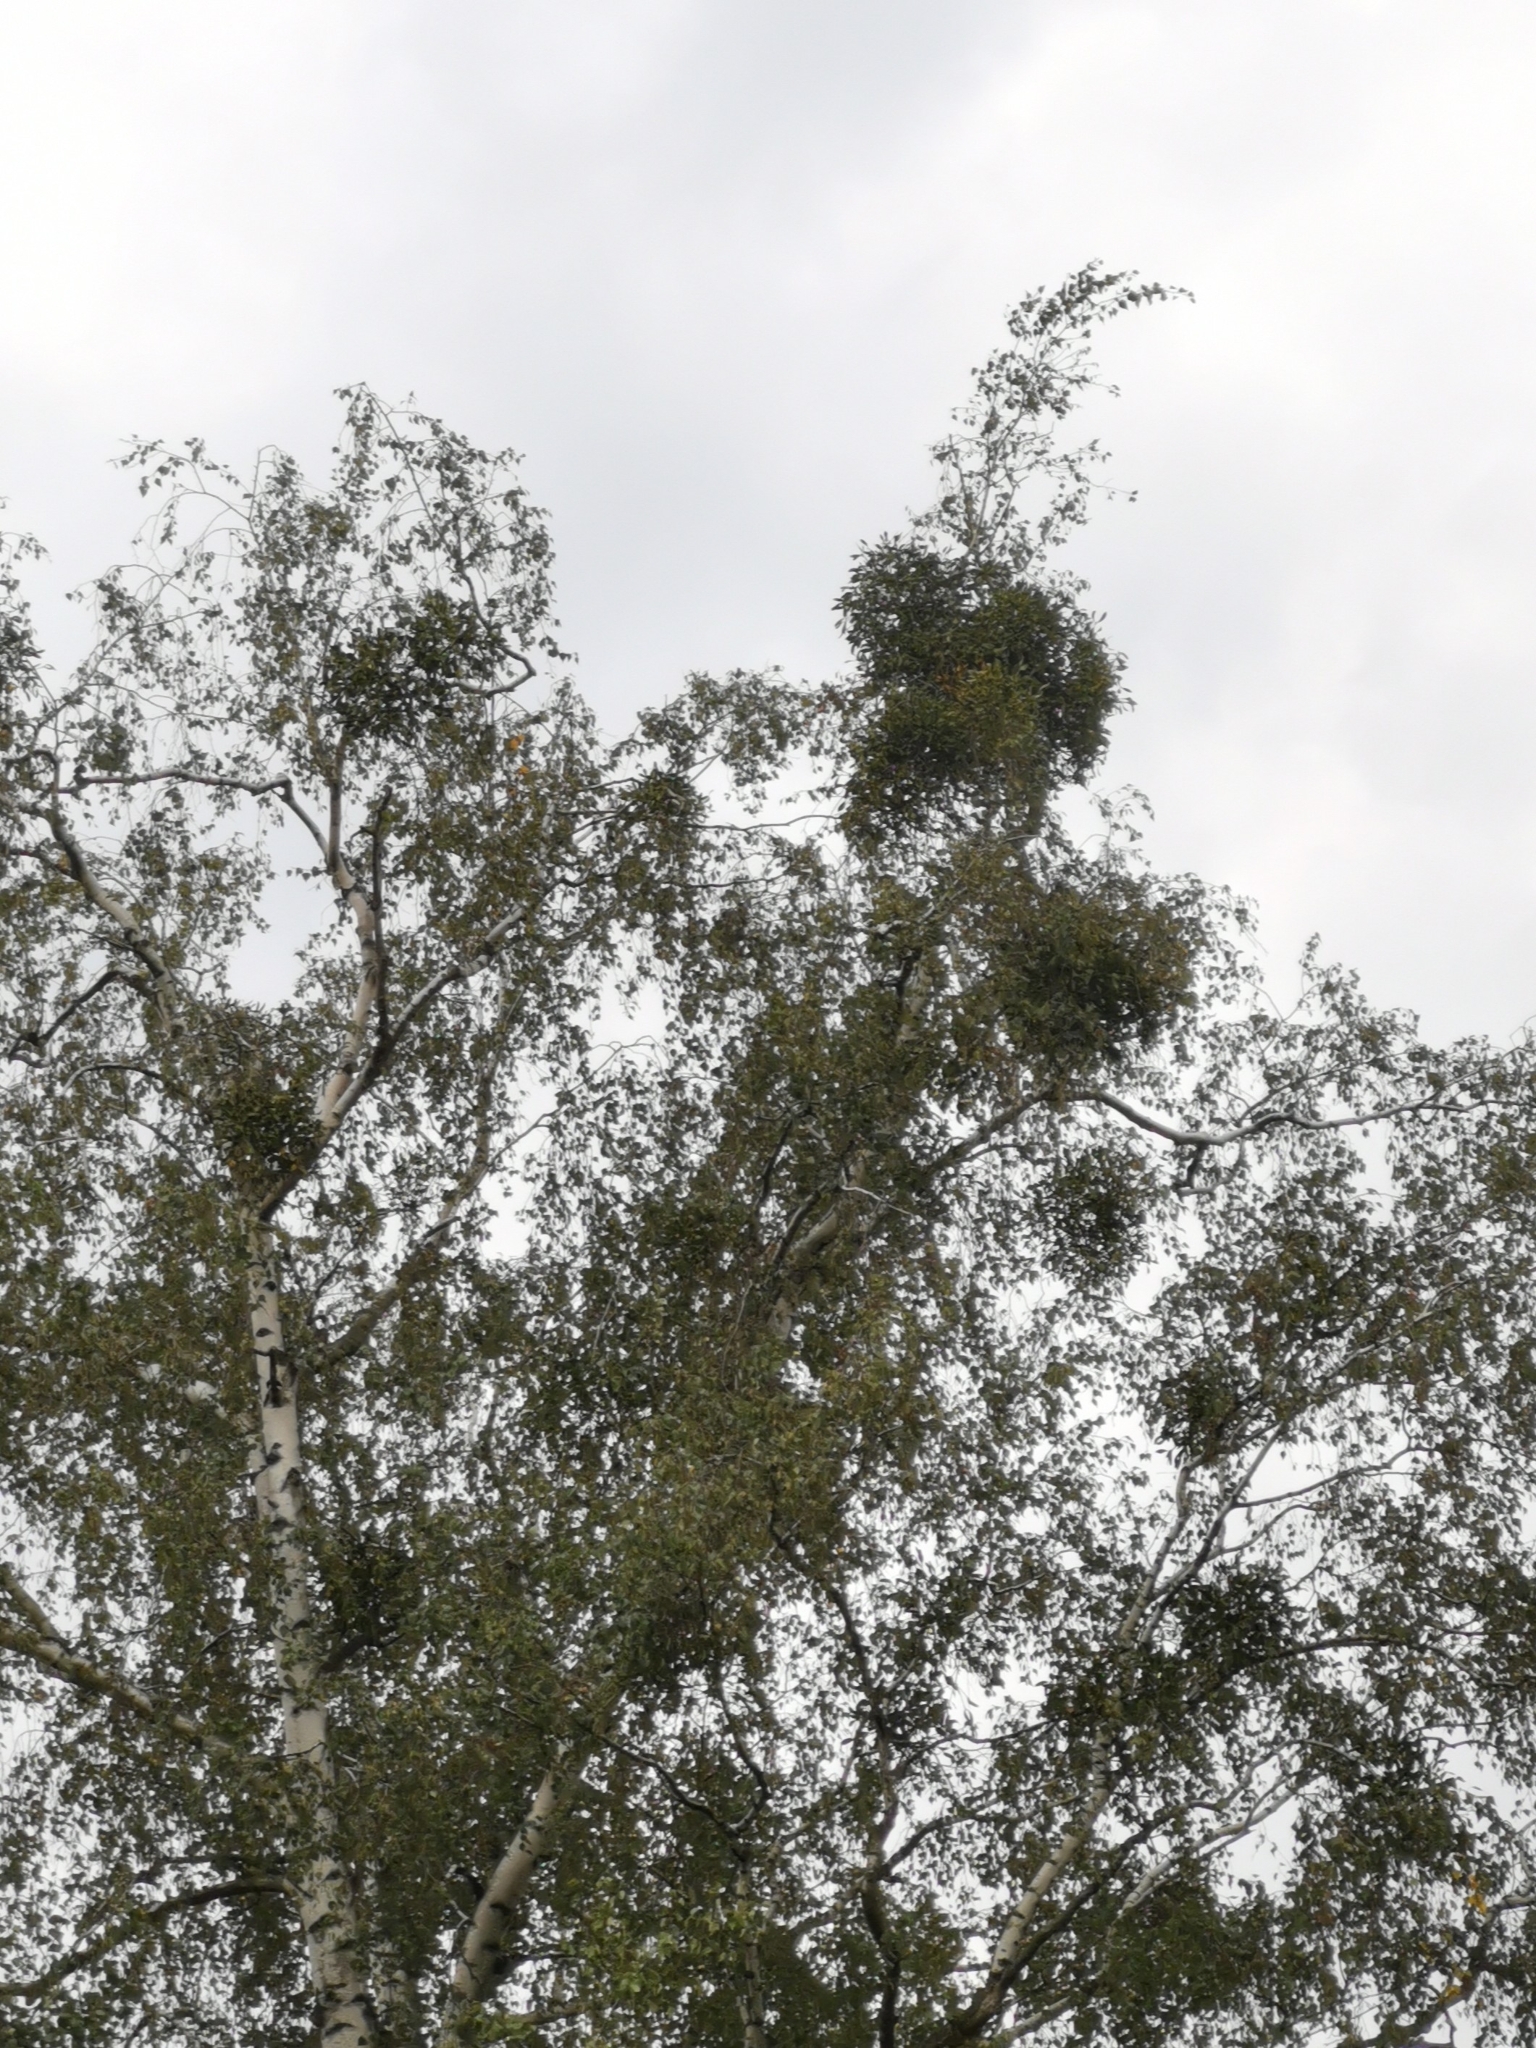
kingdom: Plantae
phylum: Tracheophyta
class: Magnoliopsida
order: Santalales
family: Viscaceae
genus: Viscum
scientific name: Viscum album
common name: Mistletoe
